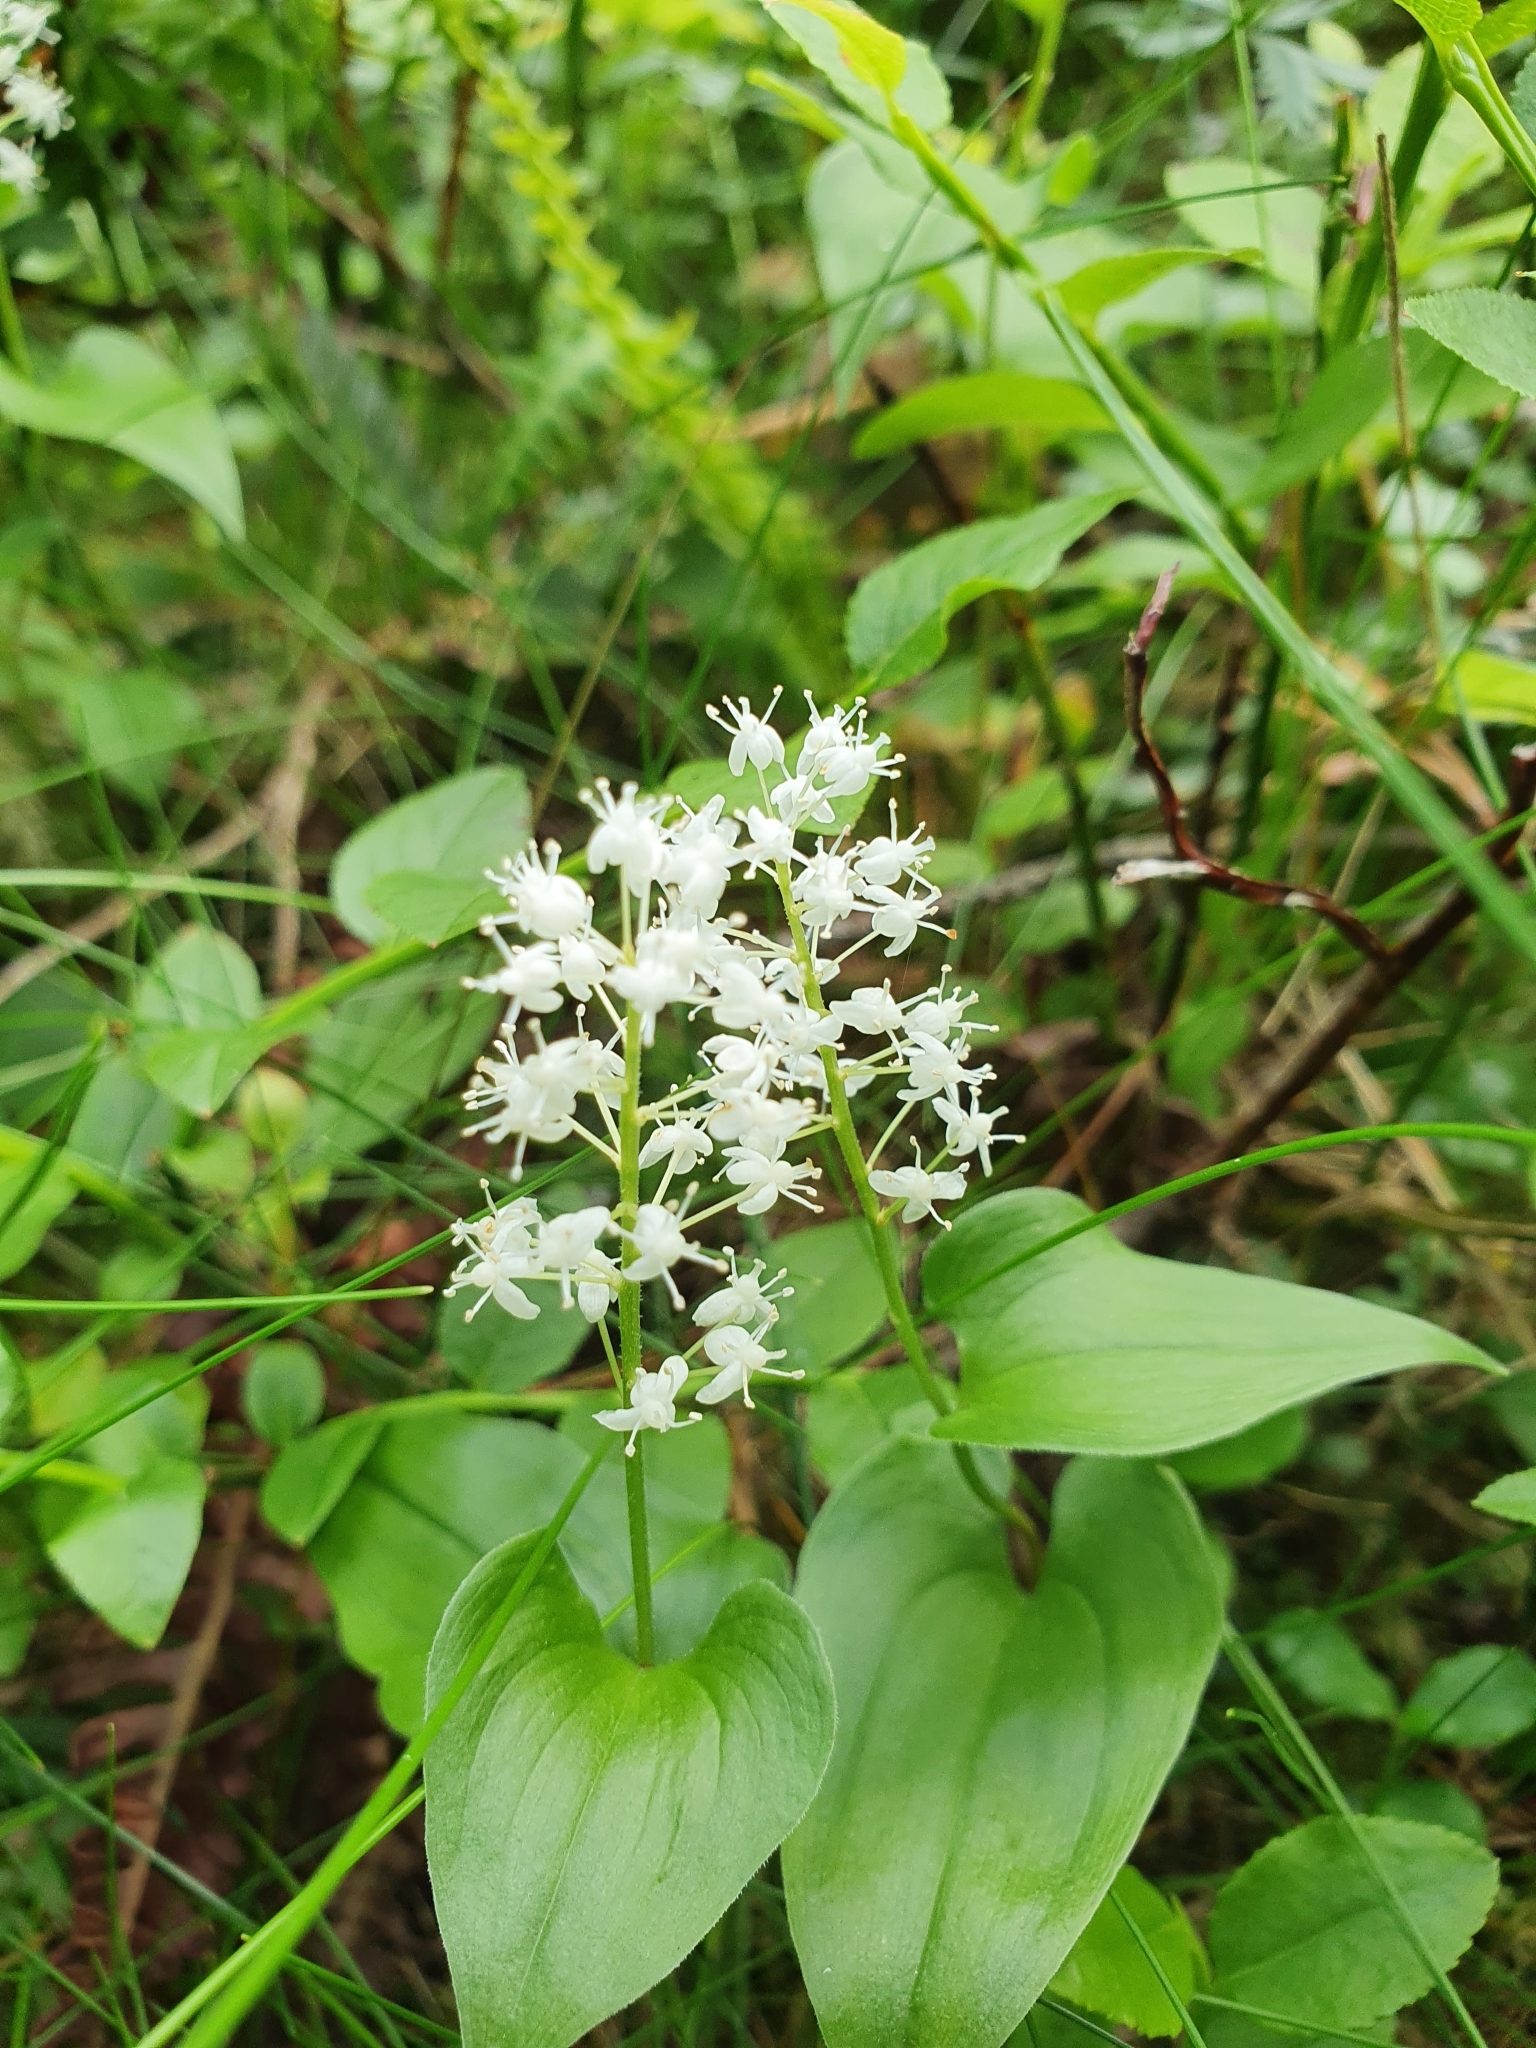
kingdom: Plantae
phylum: Tracheophyta
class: Liliopsida
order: Asparagales
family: Asparagaceae
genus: Maianthemum
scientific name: Maianthemum bifolium
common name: May lily
